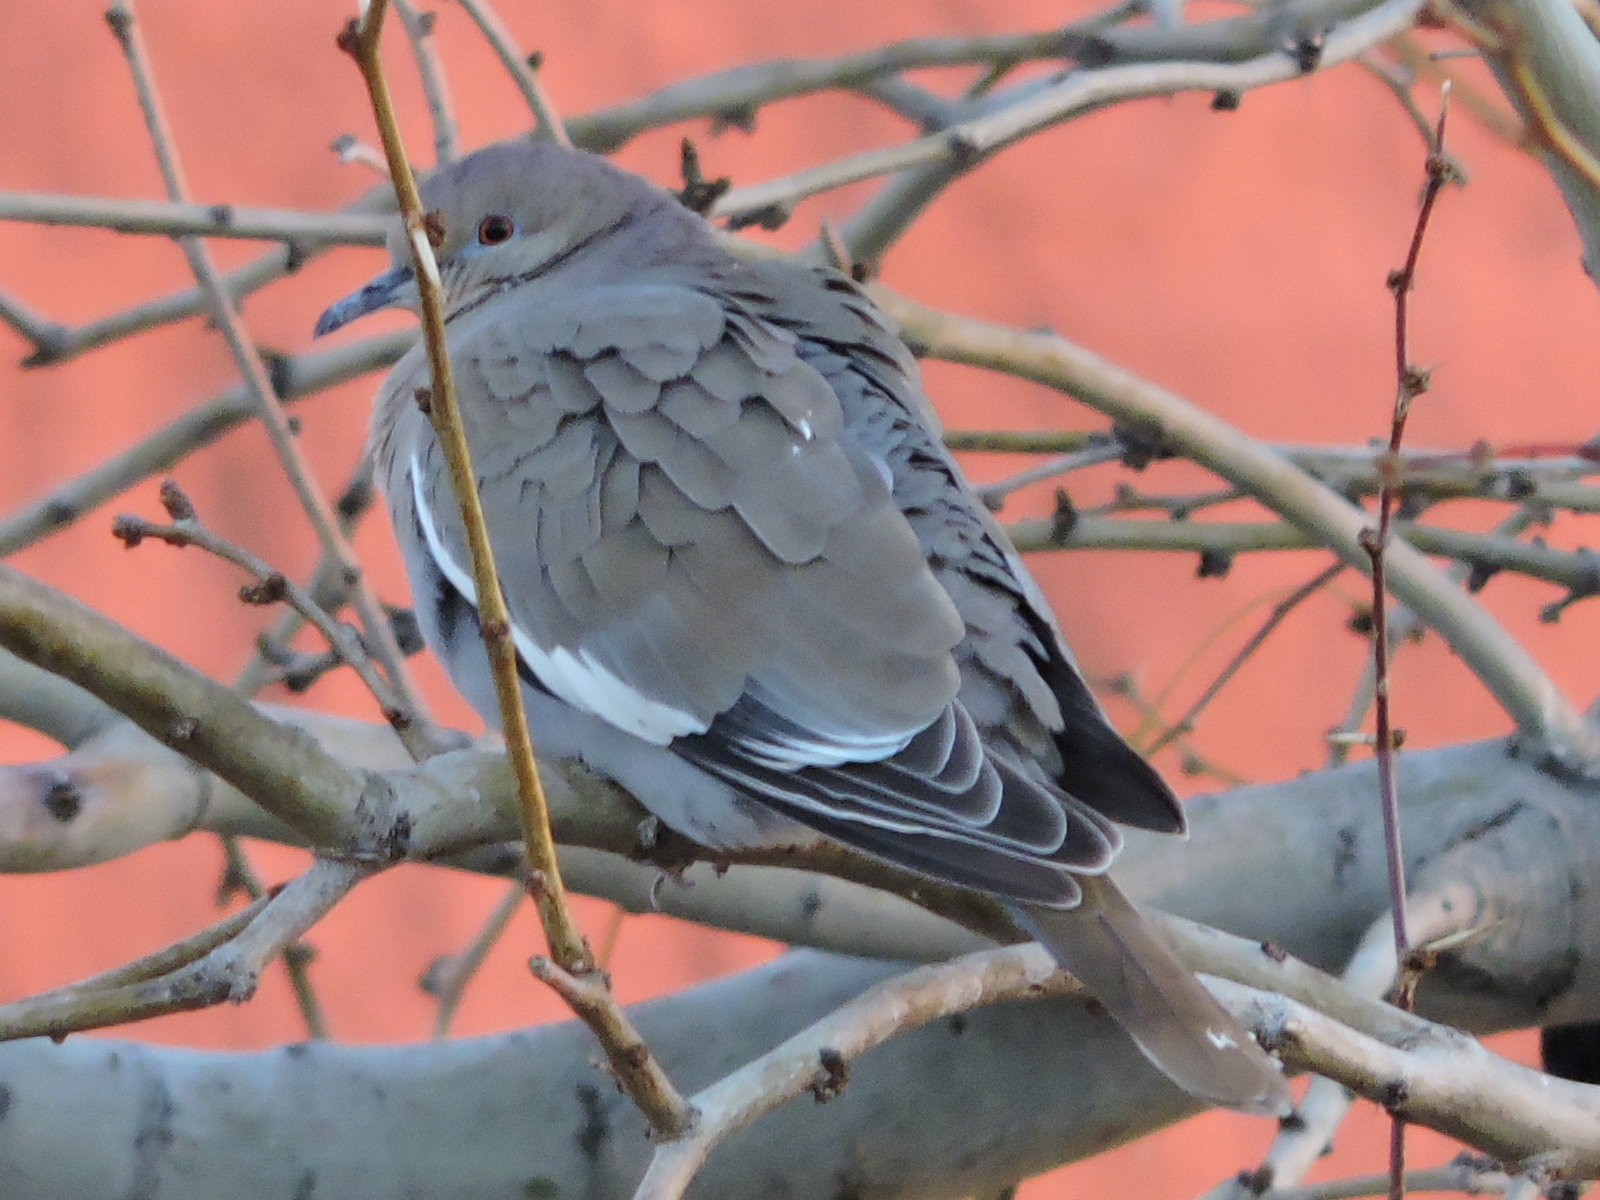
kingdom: Animalia
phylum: Chordata
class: Aves
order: Columbiformes
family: Columbidae
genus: Zenaida
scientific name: Zenaida asiatica
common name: White-winged dove
